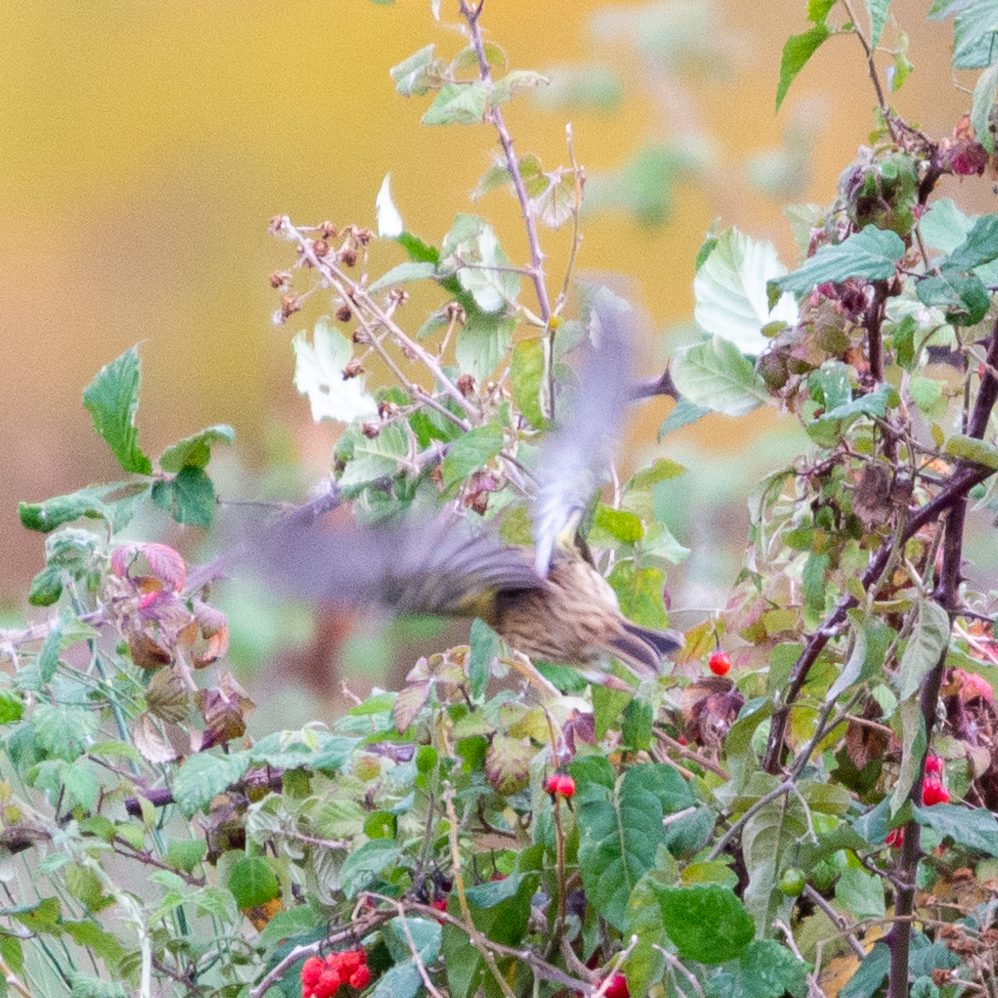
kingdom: Animalia
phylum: Chordata
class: Aves
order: Passeriformes
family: Emberizidae
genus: Emberiza
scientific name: Emberiza cirlus
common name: Cirl bunting
